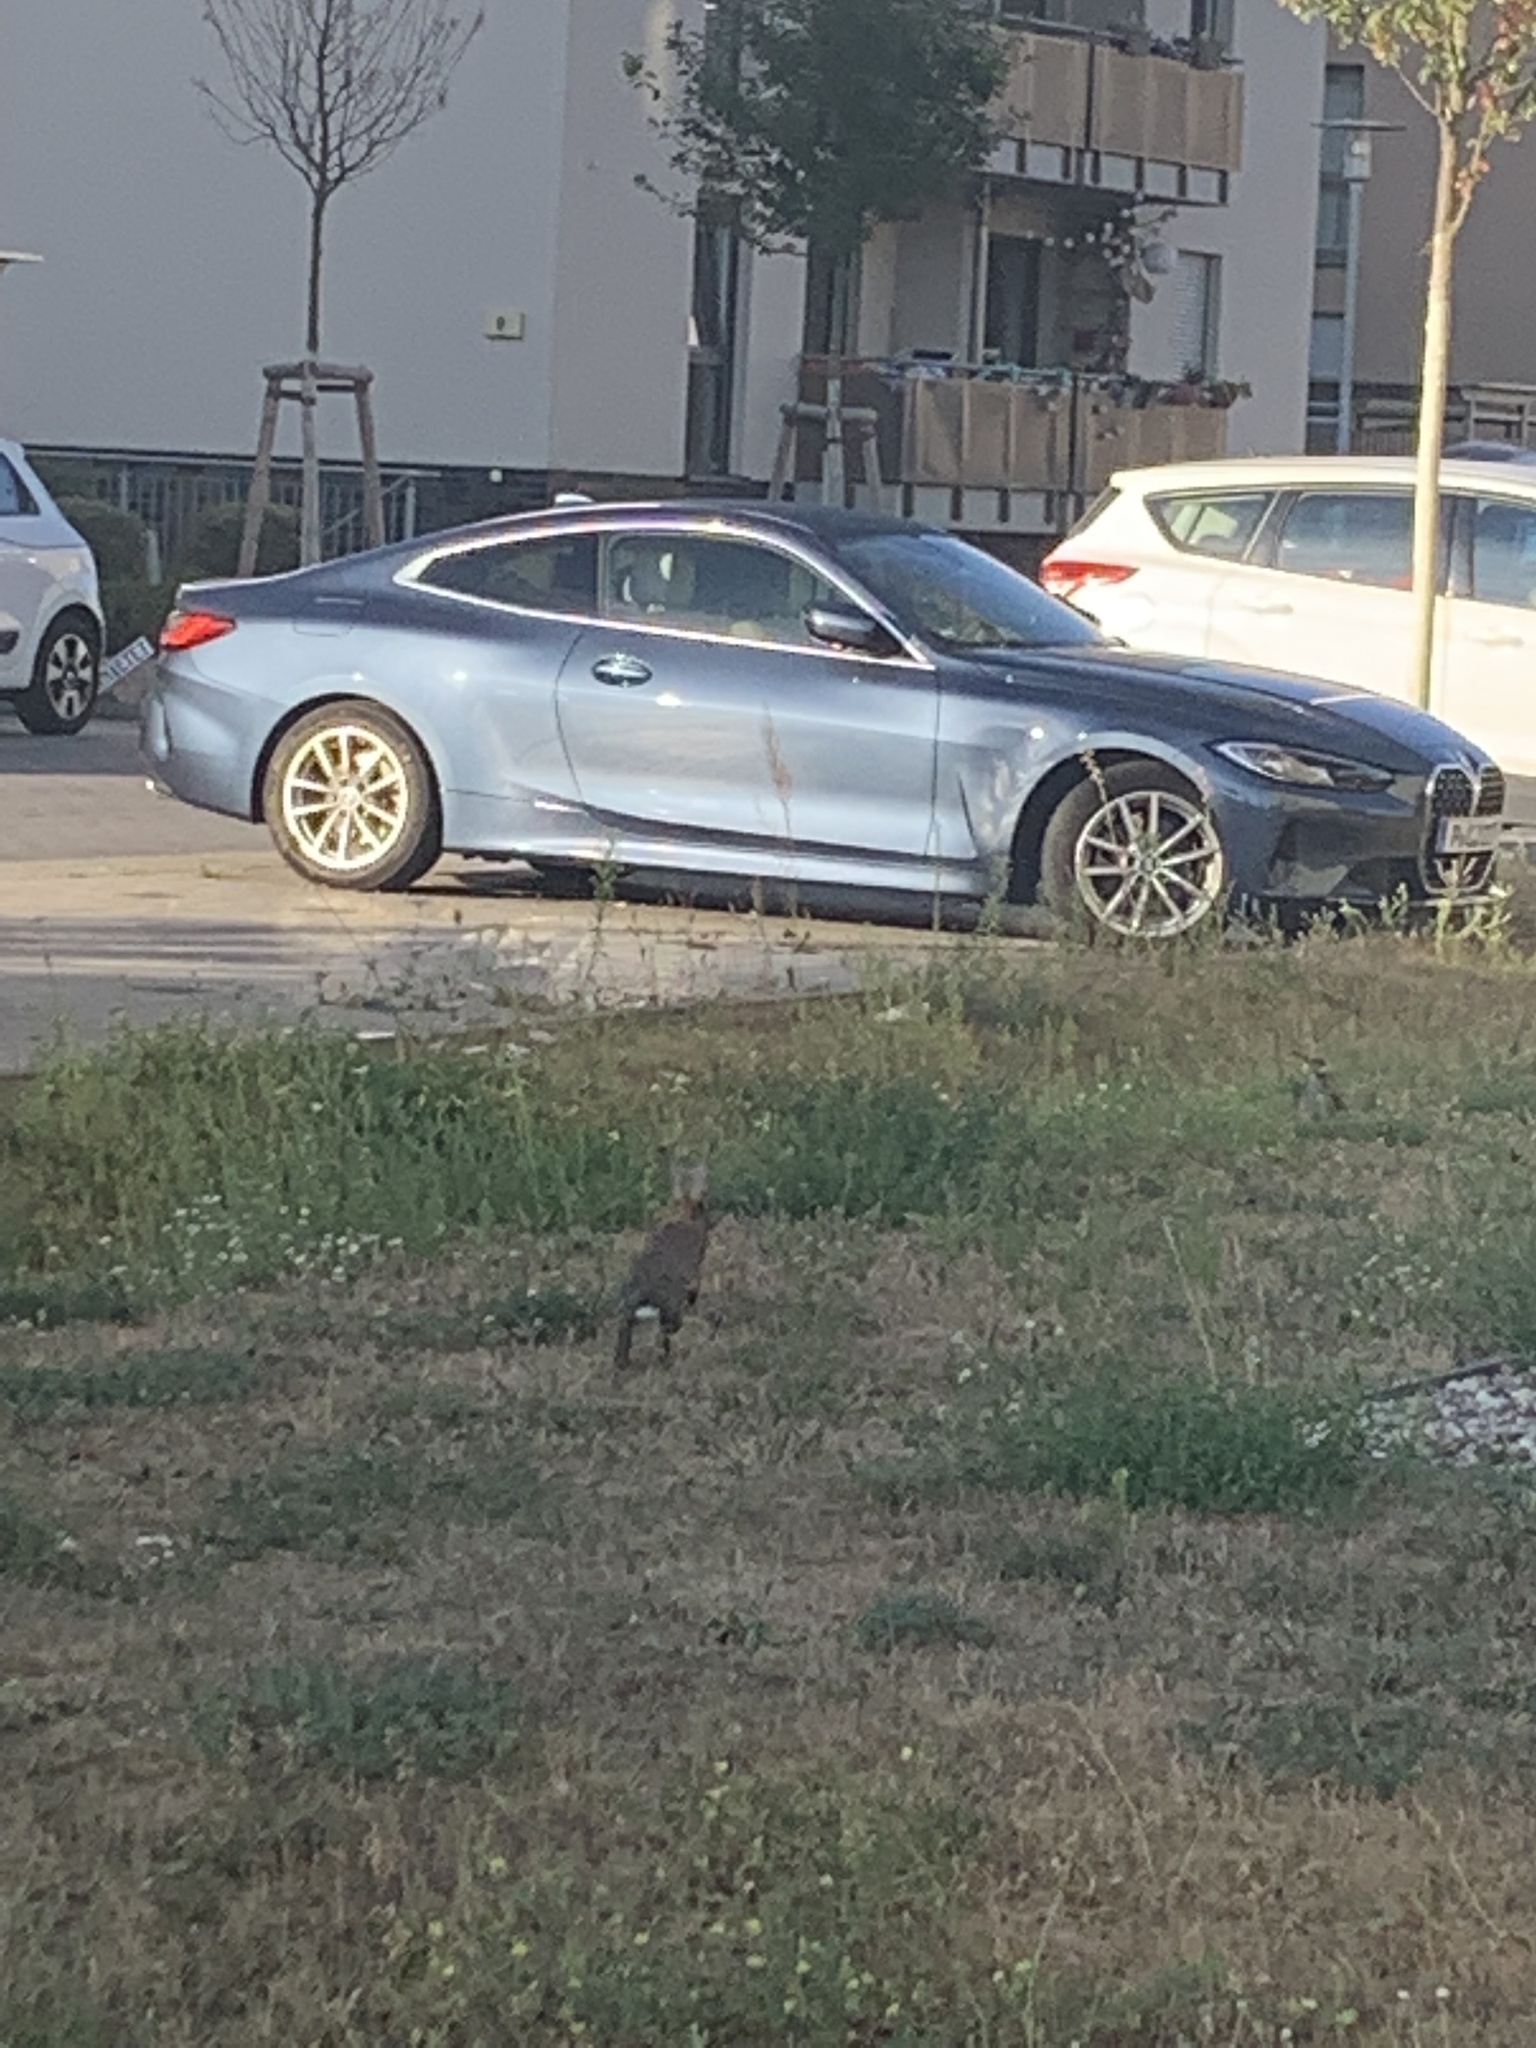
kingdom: Animalia
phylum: Chordata
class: Mammalia
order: Lagomorpha
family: Leporidae
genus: Lepus
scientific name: Lepus europaeus
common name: European hare
